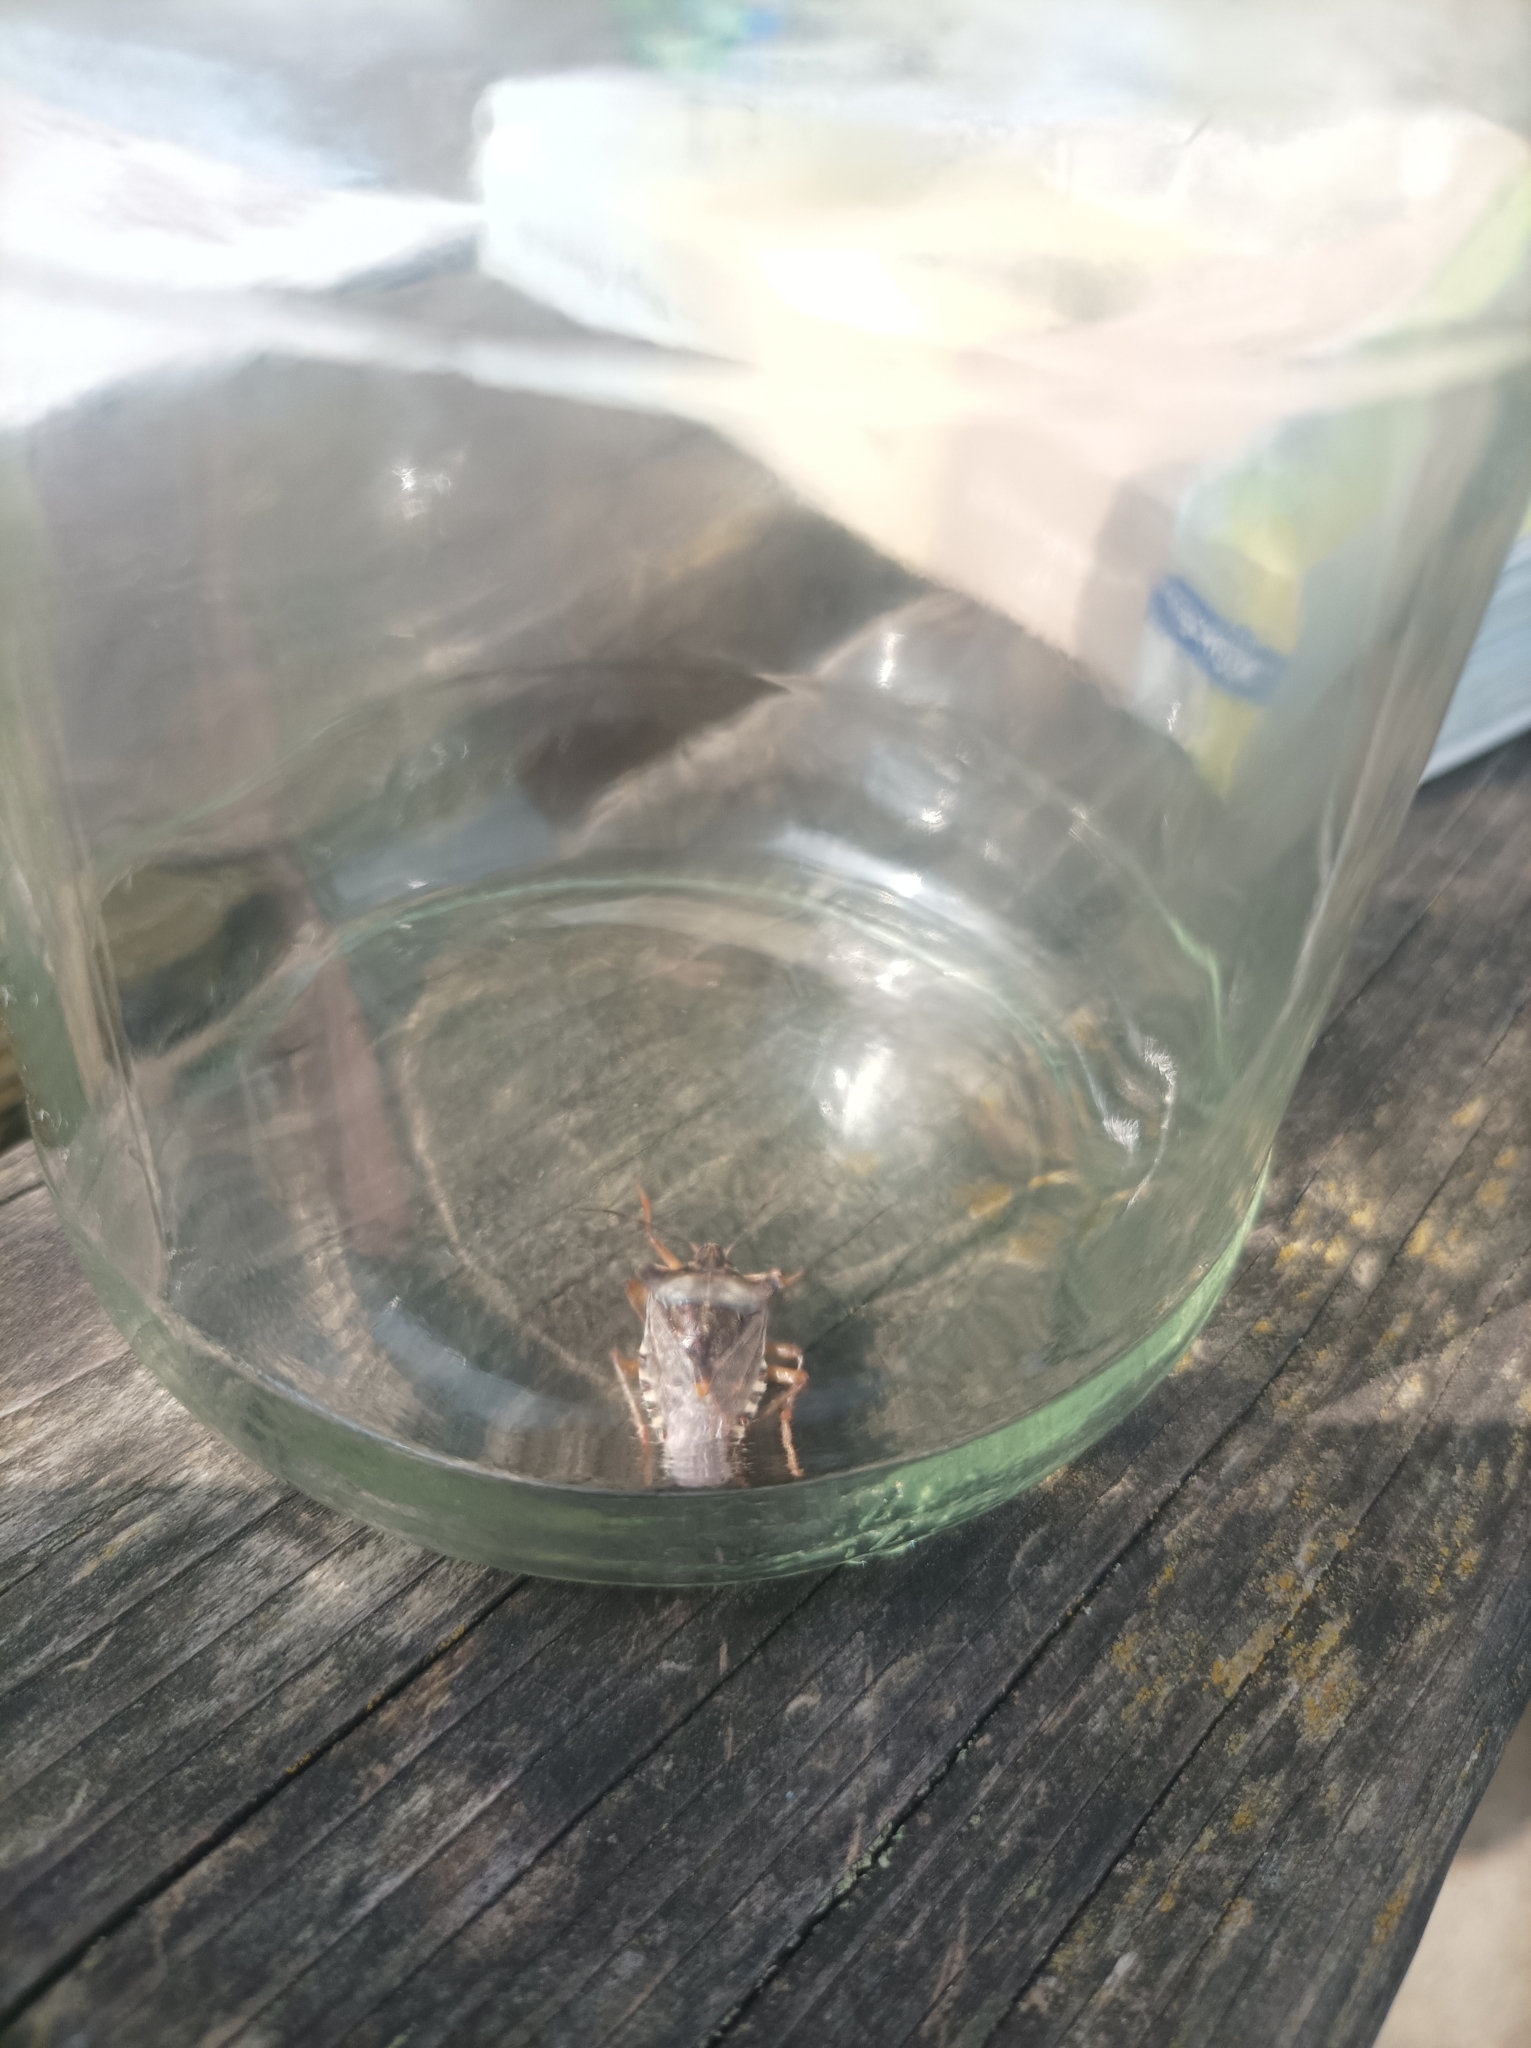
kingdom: Animalia
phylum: Arthropoda
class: Insecta
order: Hemiptera
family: Pentatomidae
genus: Pentatoma
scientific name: Pentatoma rufipes
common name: Forest bug
